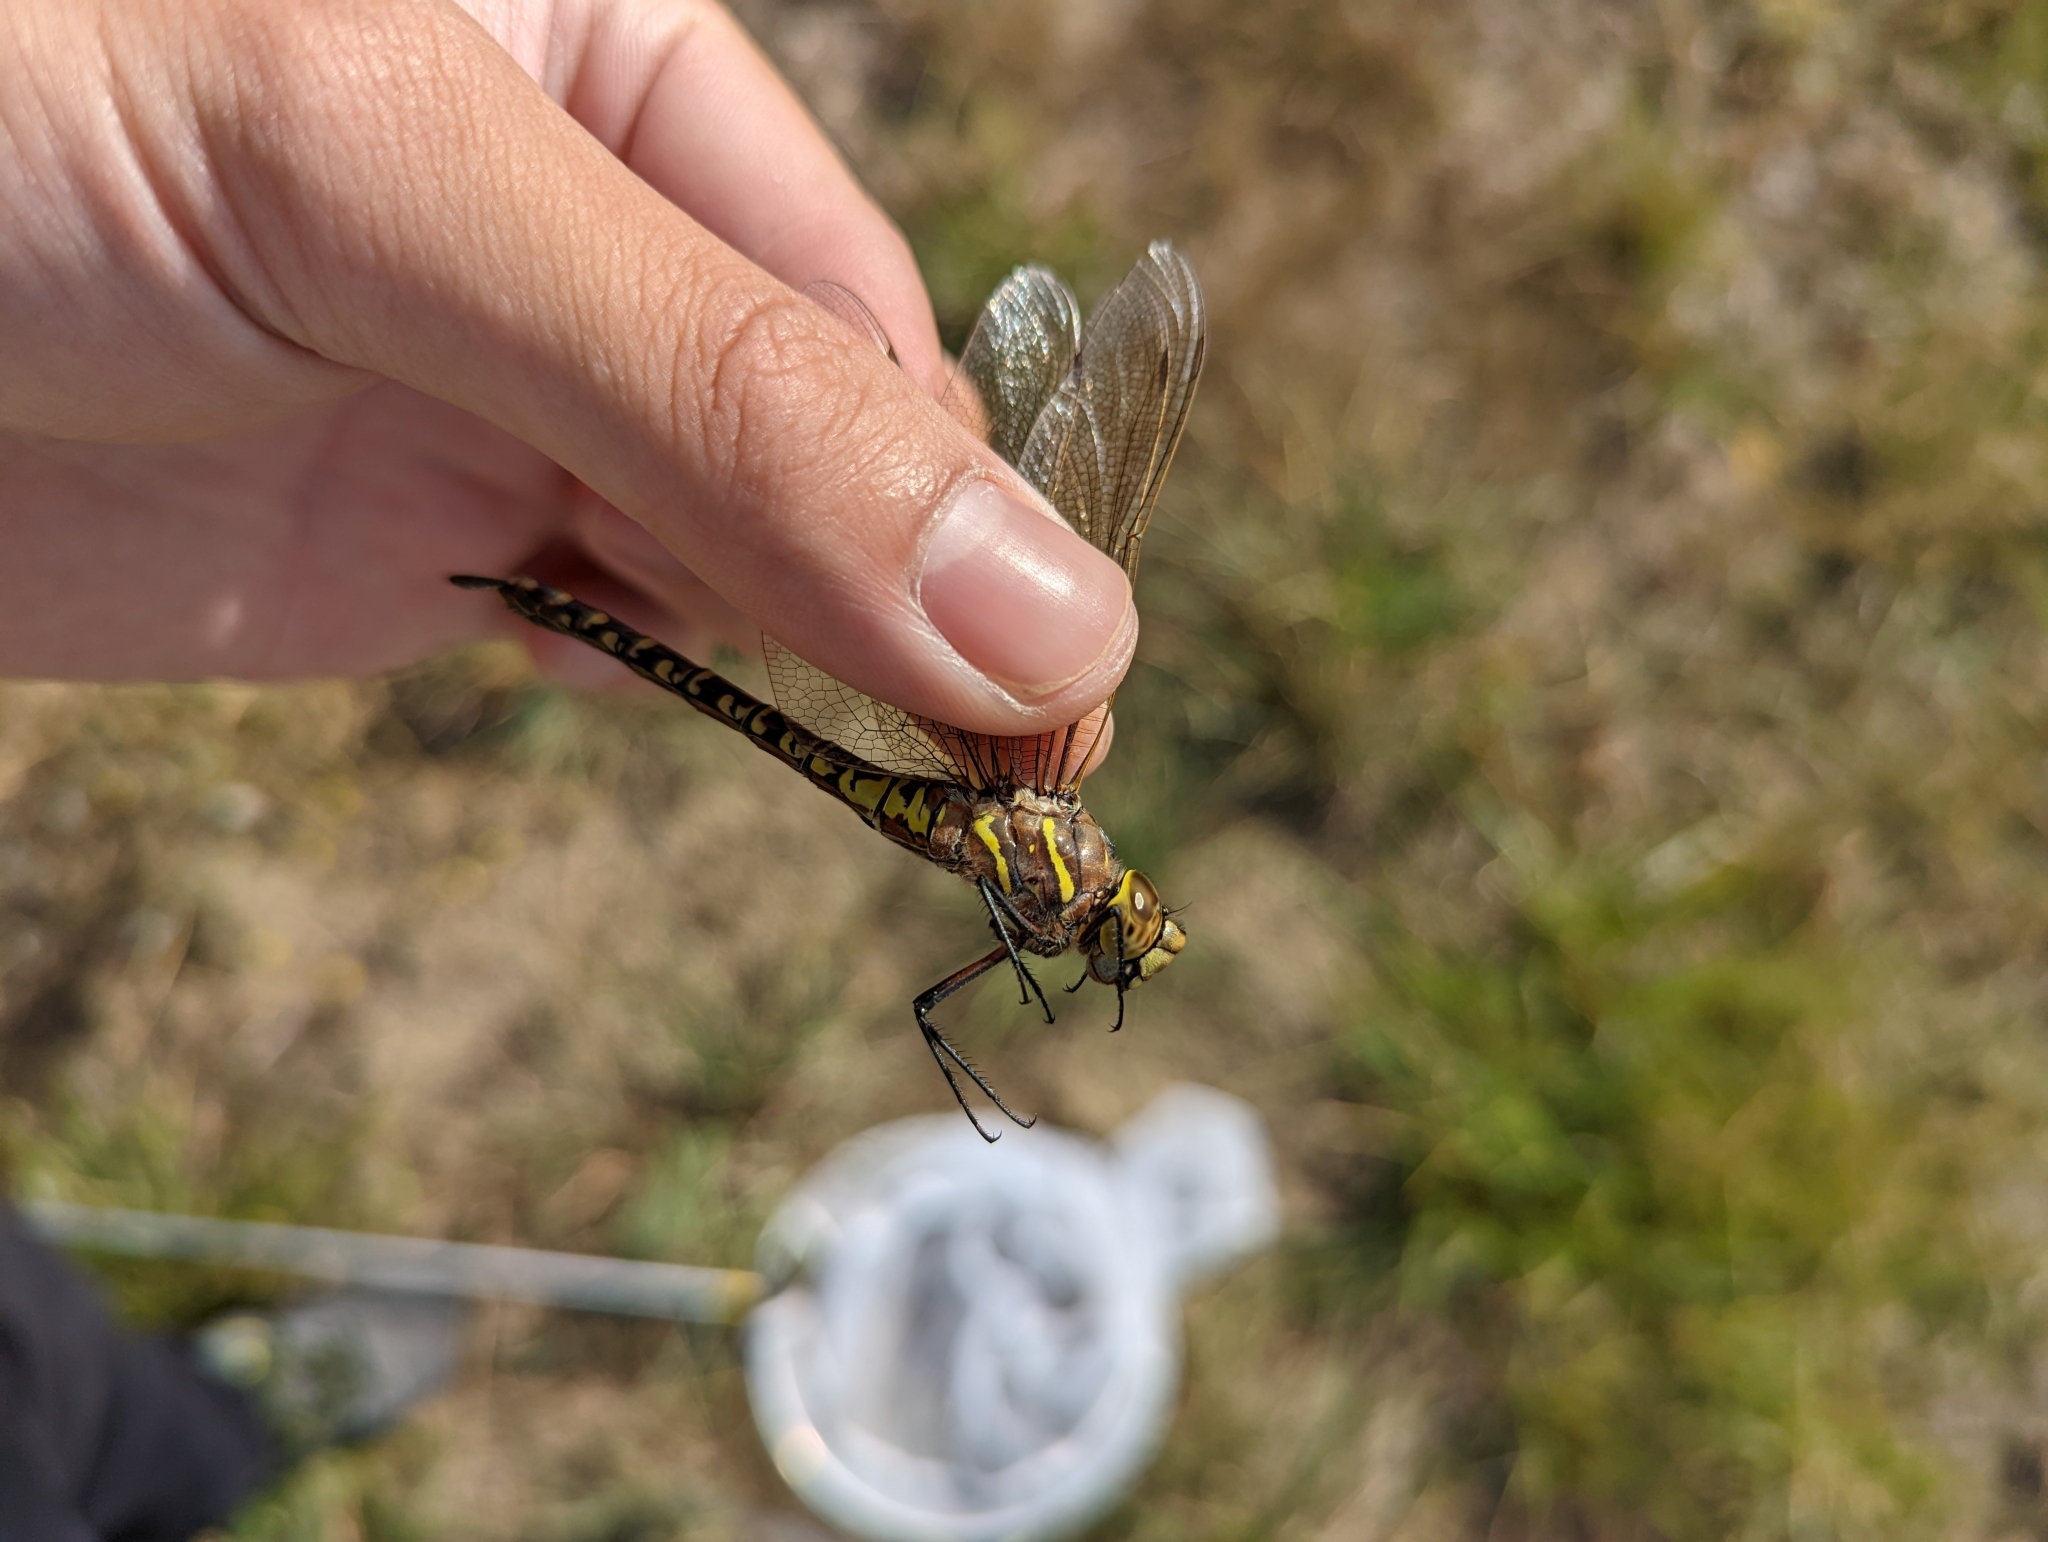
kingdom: Animalia
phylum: Arthropoda
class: Insecta
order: Odonata
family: Aeshnidae
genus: Aeshna
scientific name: Aeshna interrupta
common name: Variable darner
